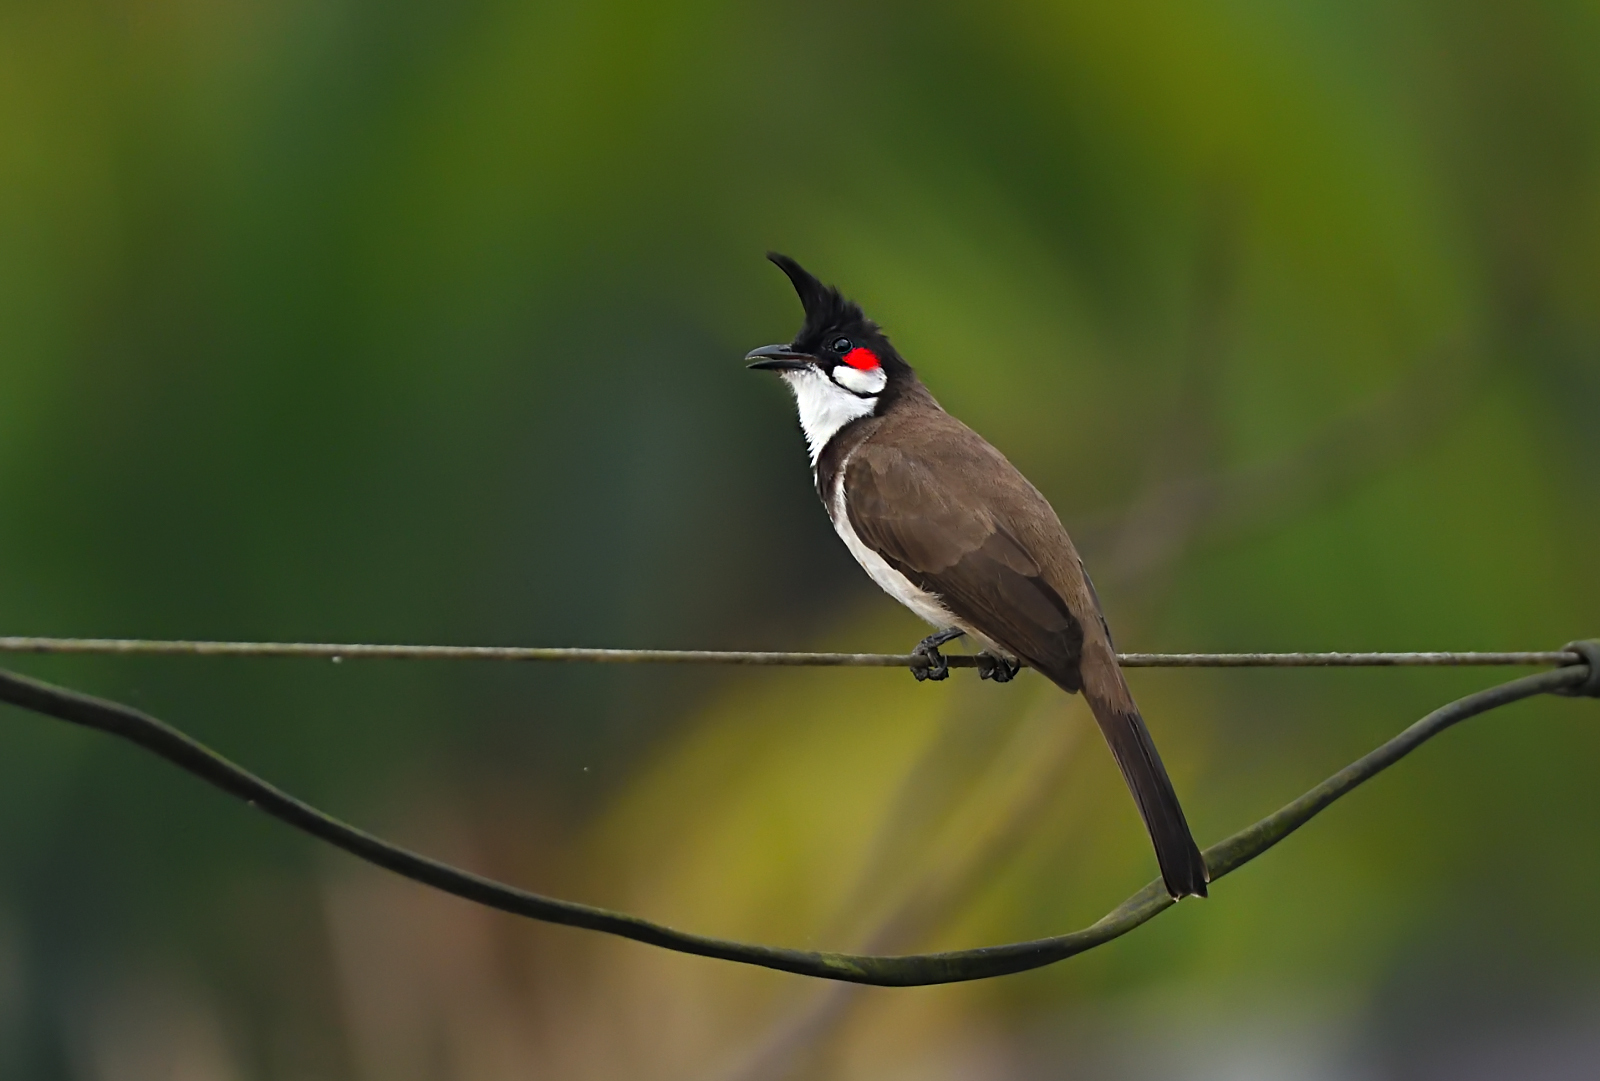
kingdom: Animalia
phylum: Chordata
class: Aves
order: Passeriformes
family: Pycnonotidae
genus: Pycnonotus
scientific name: Pycnonotus jocosus
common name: Red-whiskered bulbul
